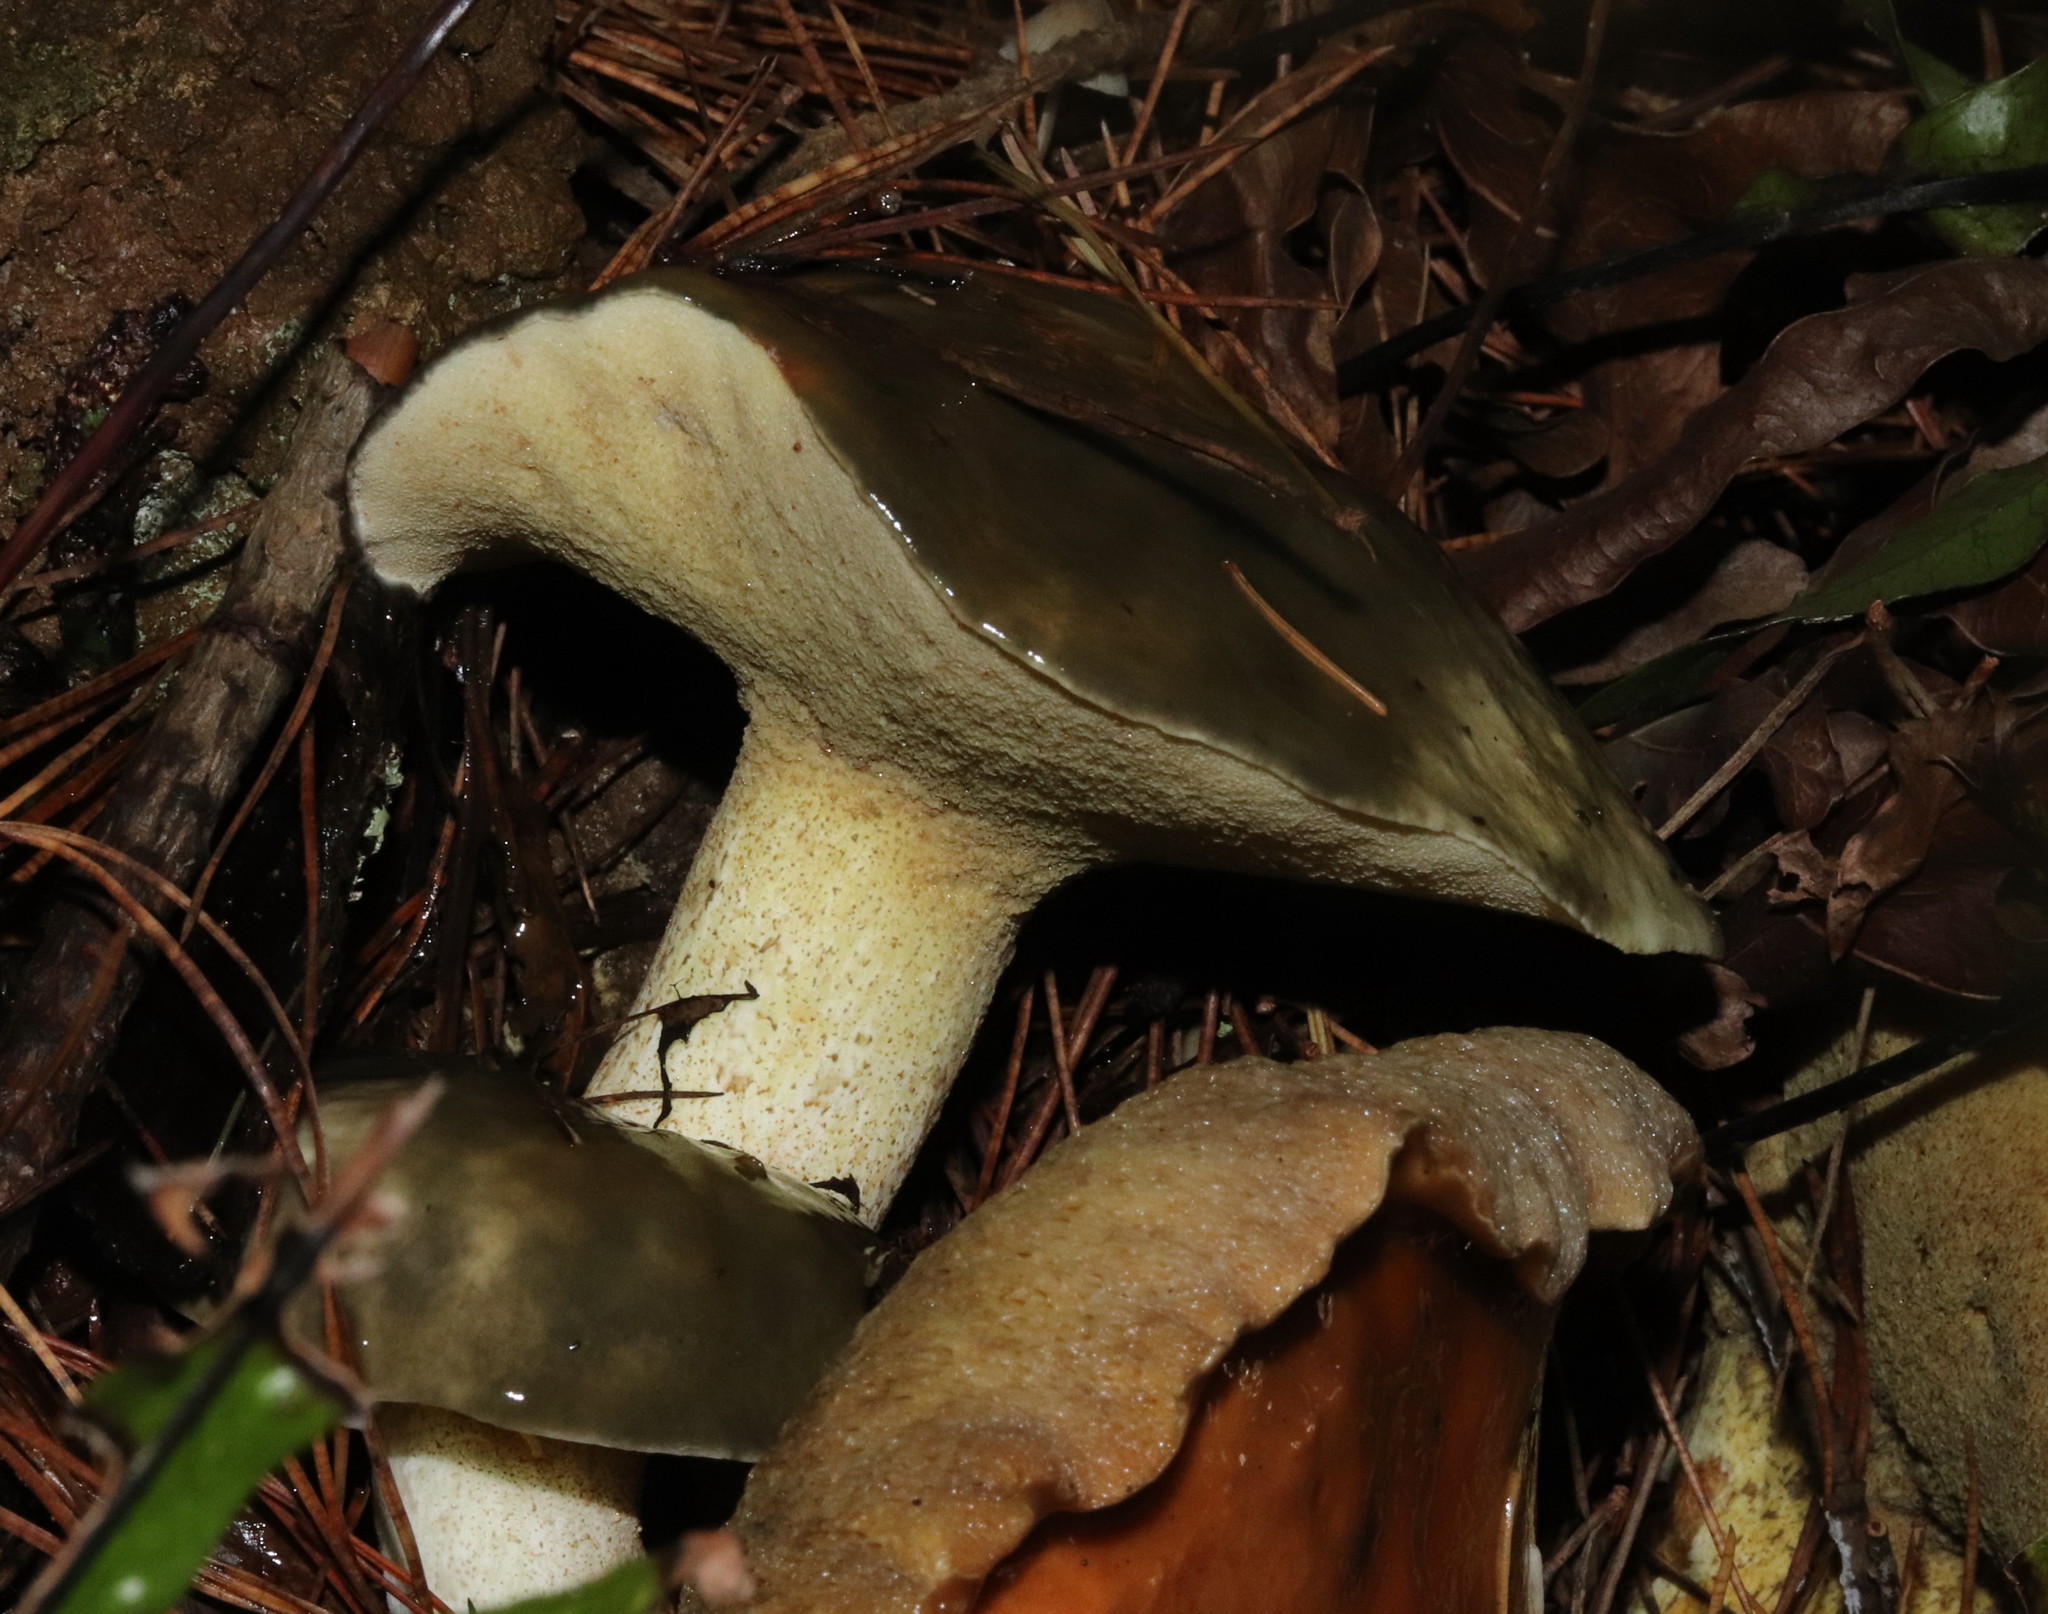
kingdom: Fungi
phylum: Basidiomycota
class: Agaricomycetes
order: Boletales
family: Suillaceae
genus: Suillus
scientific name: Suillus pungens
